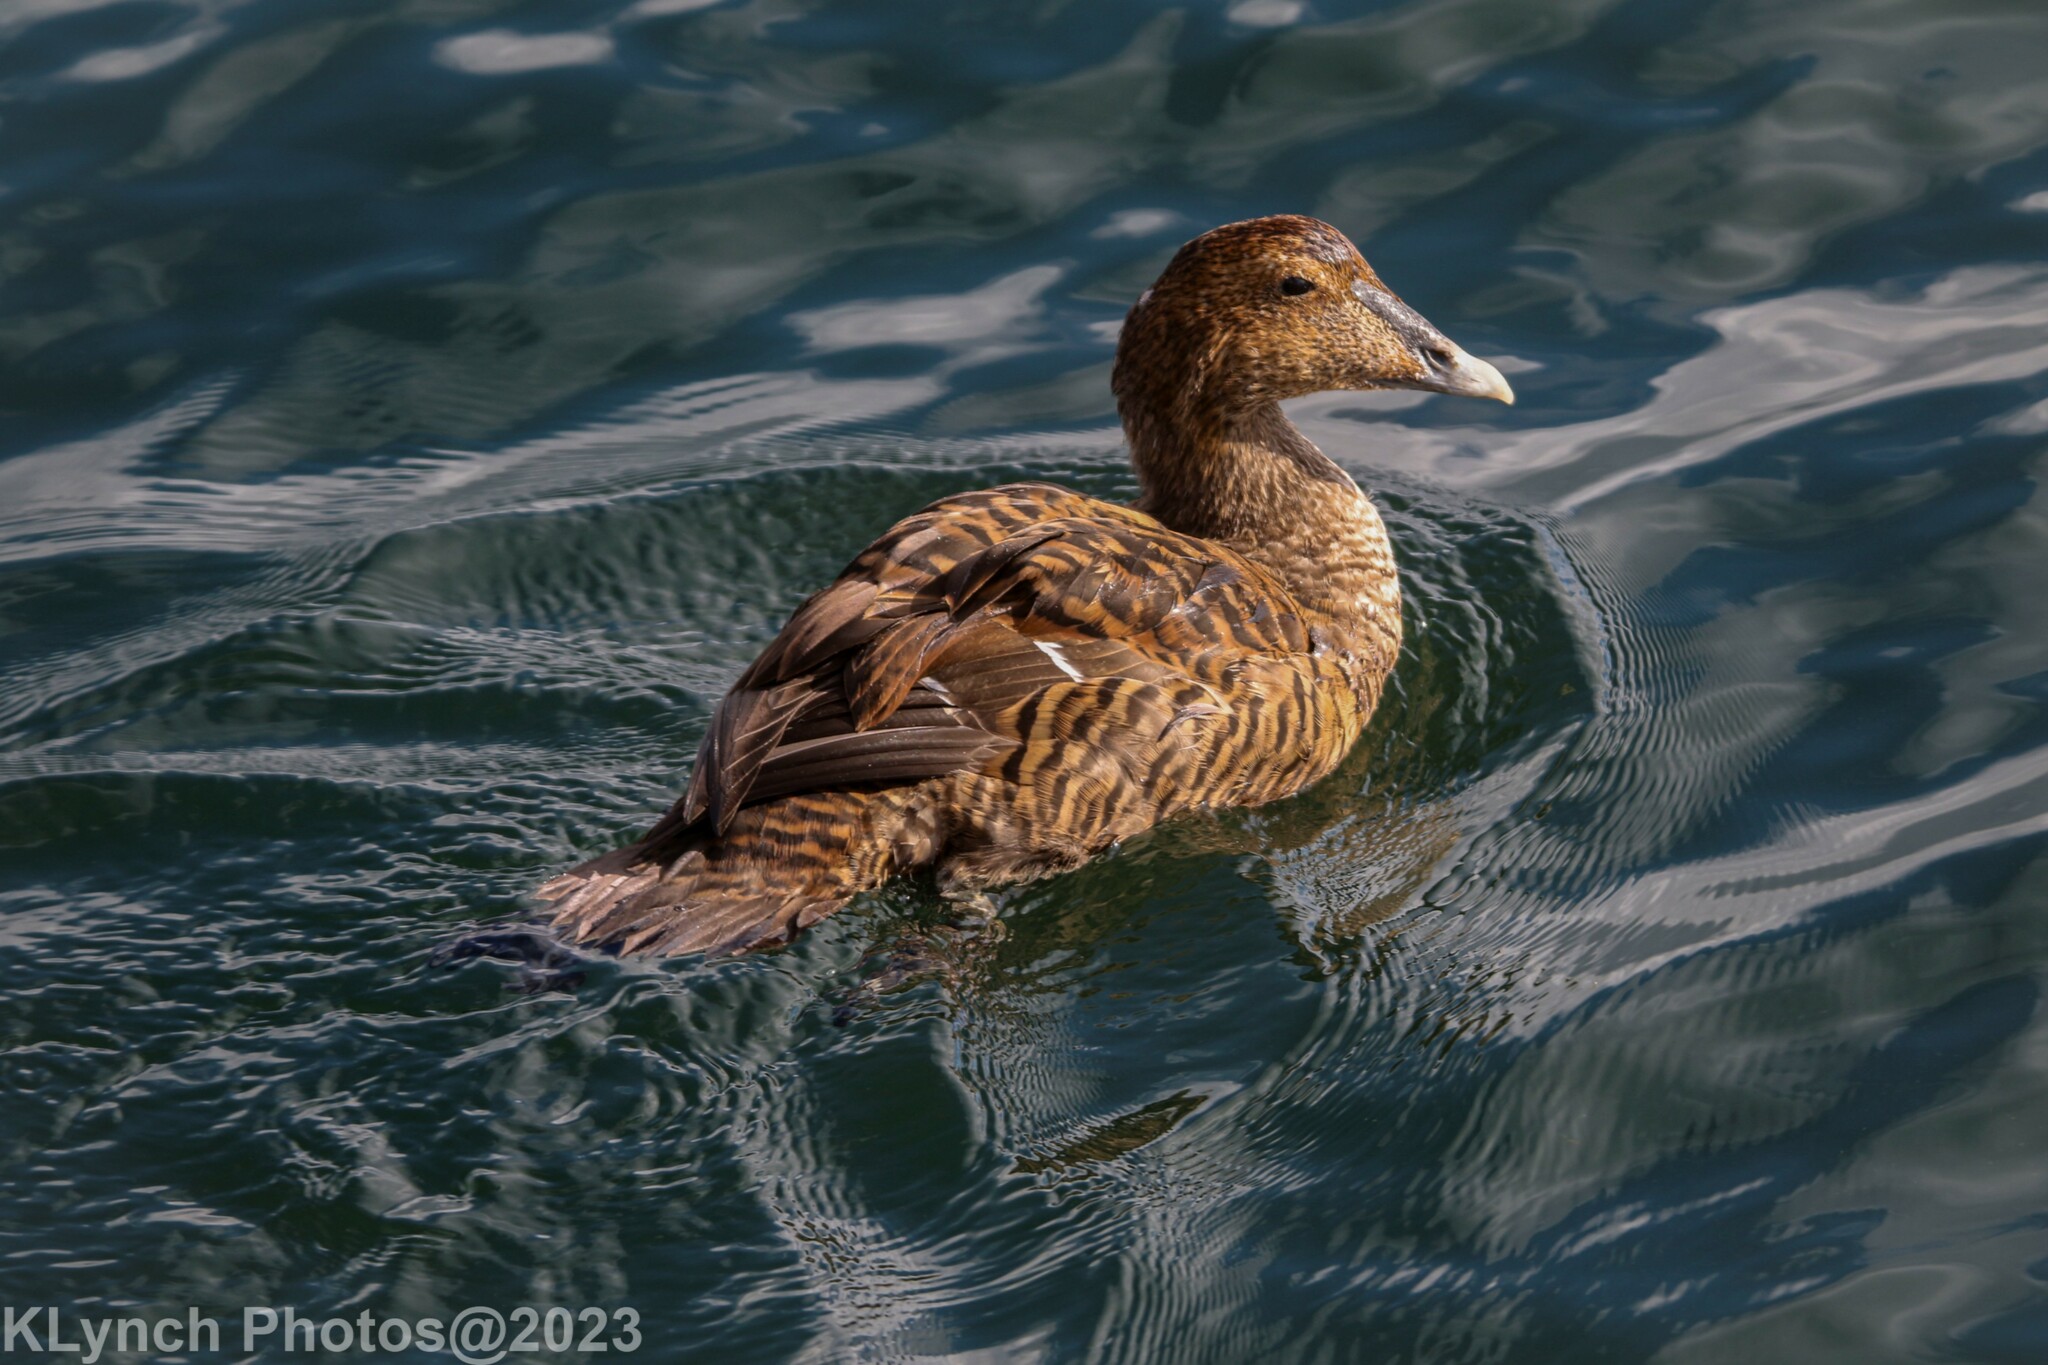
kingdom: Animalia
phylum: Chordata
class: Aves
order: Anseriformes
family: Anatidae
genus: Somateria
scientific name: Somateria mollissima
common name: Common eider
